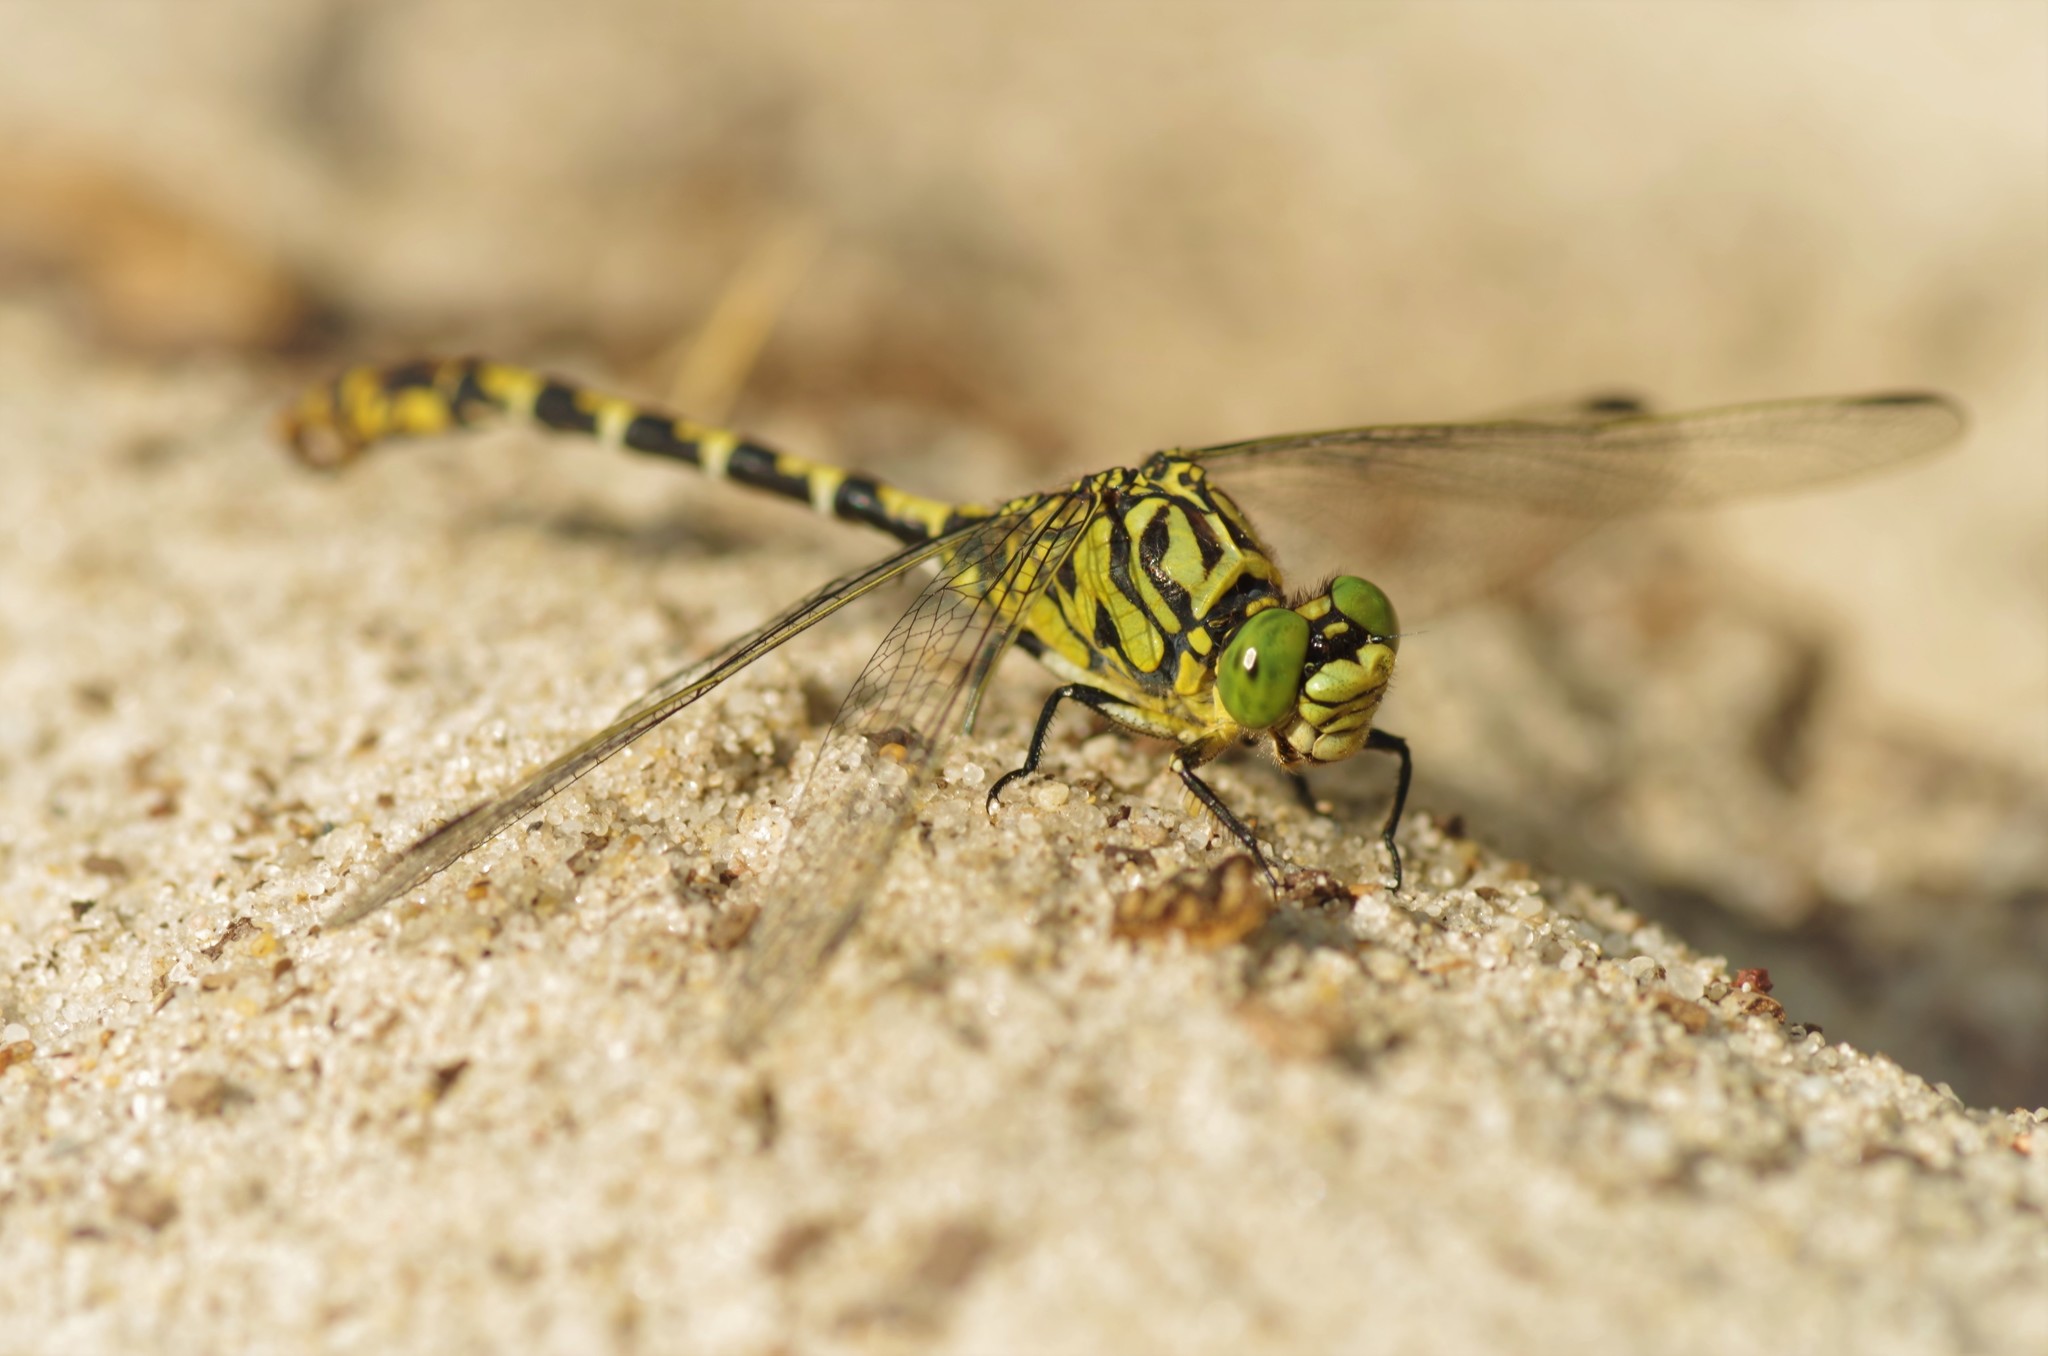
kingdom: Animalia
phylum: Arthropoda
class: Insecta
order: Odonata
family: Gomphidae
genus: Onychogomphus
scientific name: Onychogomphus forcipatus
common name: Small pincertail
